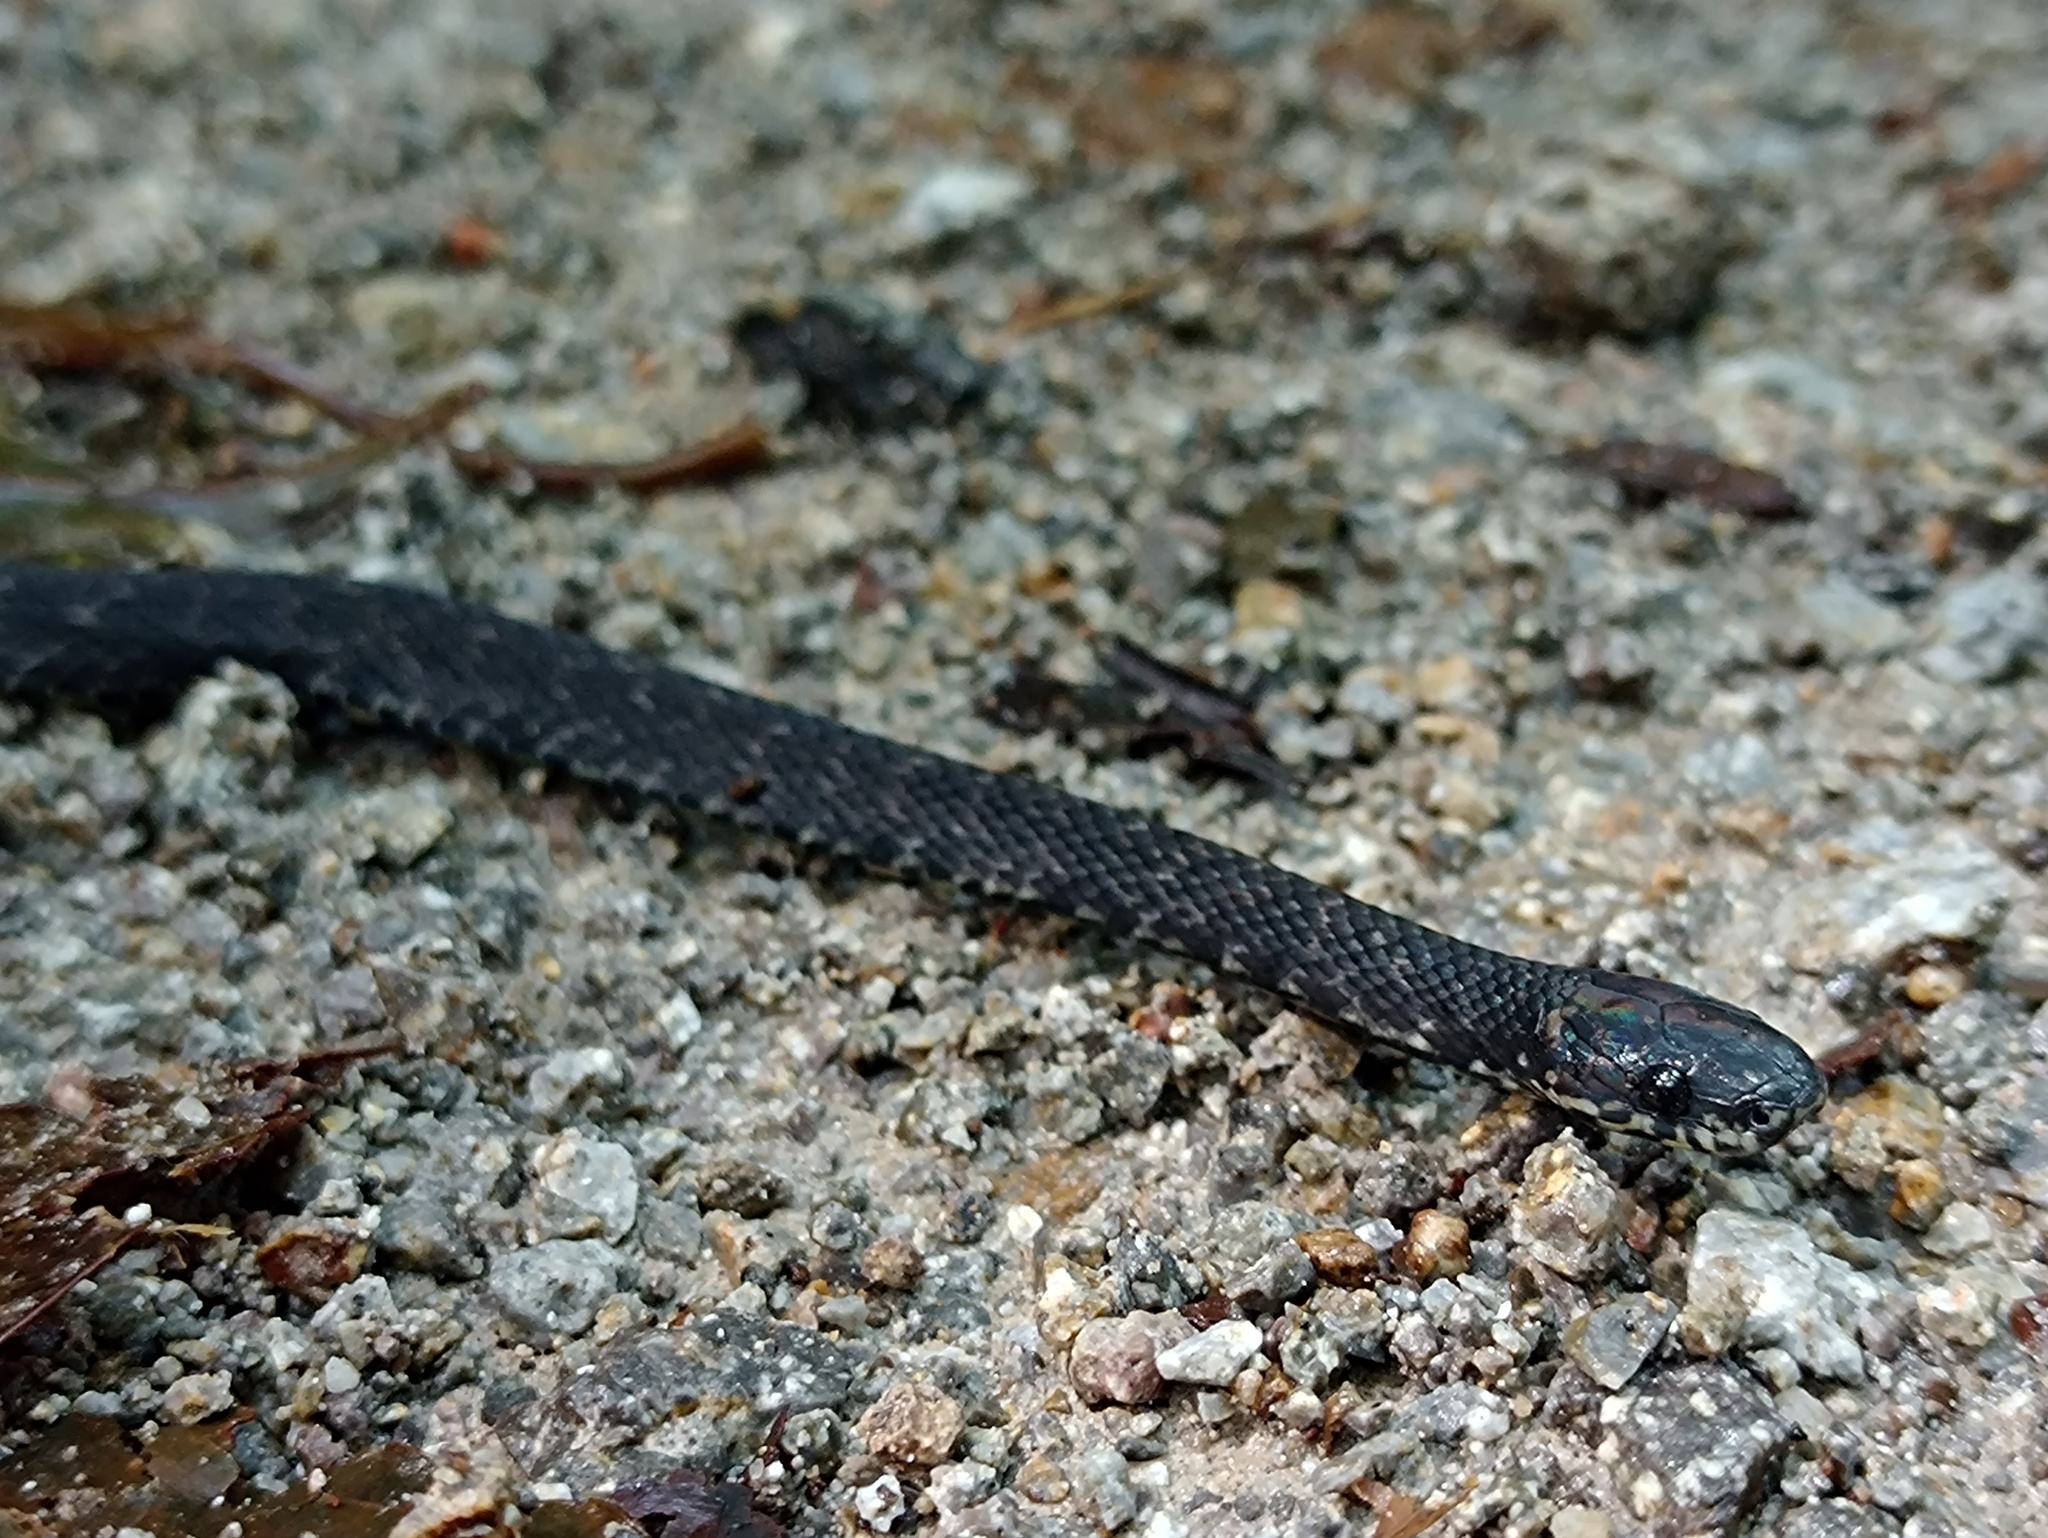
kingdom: Animalia
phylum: Chordata
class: Squamata
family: Colubridae
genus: Ninia
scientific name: Ninia psephota
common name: Cope's coffee snake
